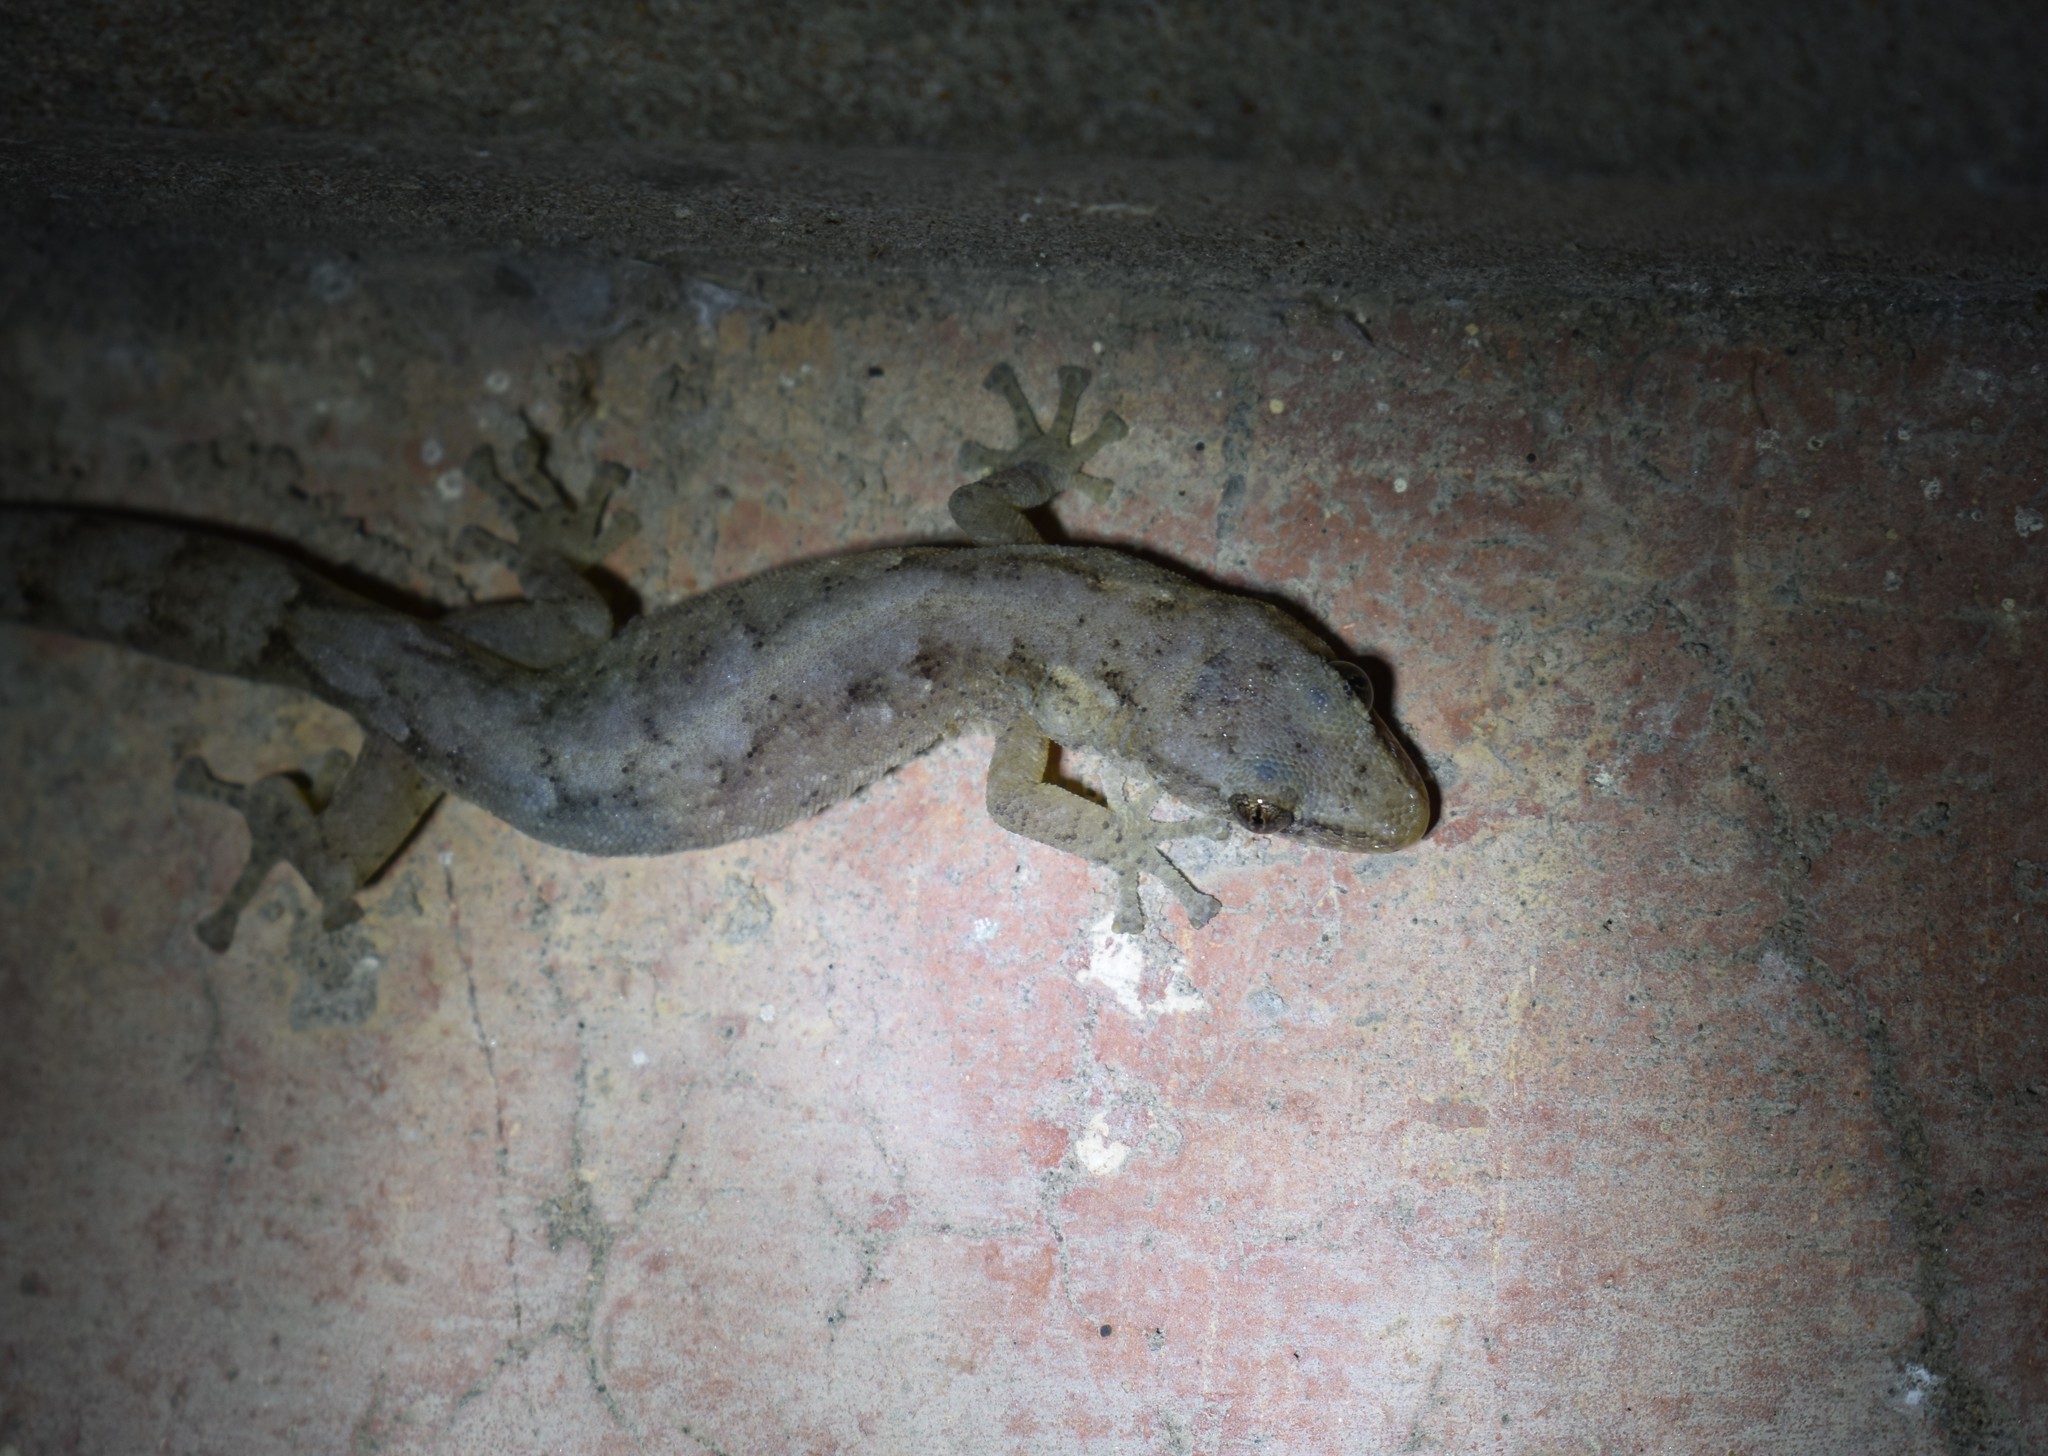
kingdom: Animalia
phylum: Chordata
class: Squamata
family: Gekkonidae
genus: Afrogecko
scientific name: Afrogecko porphyreus
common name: Marbled leaf-toed gecko
